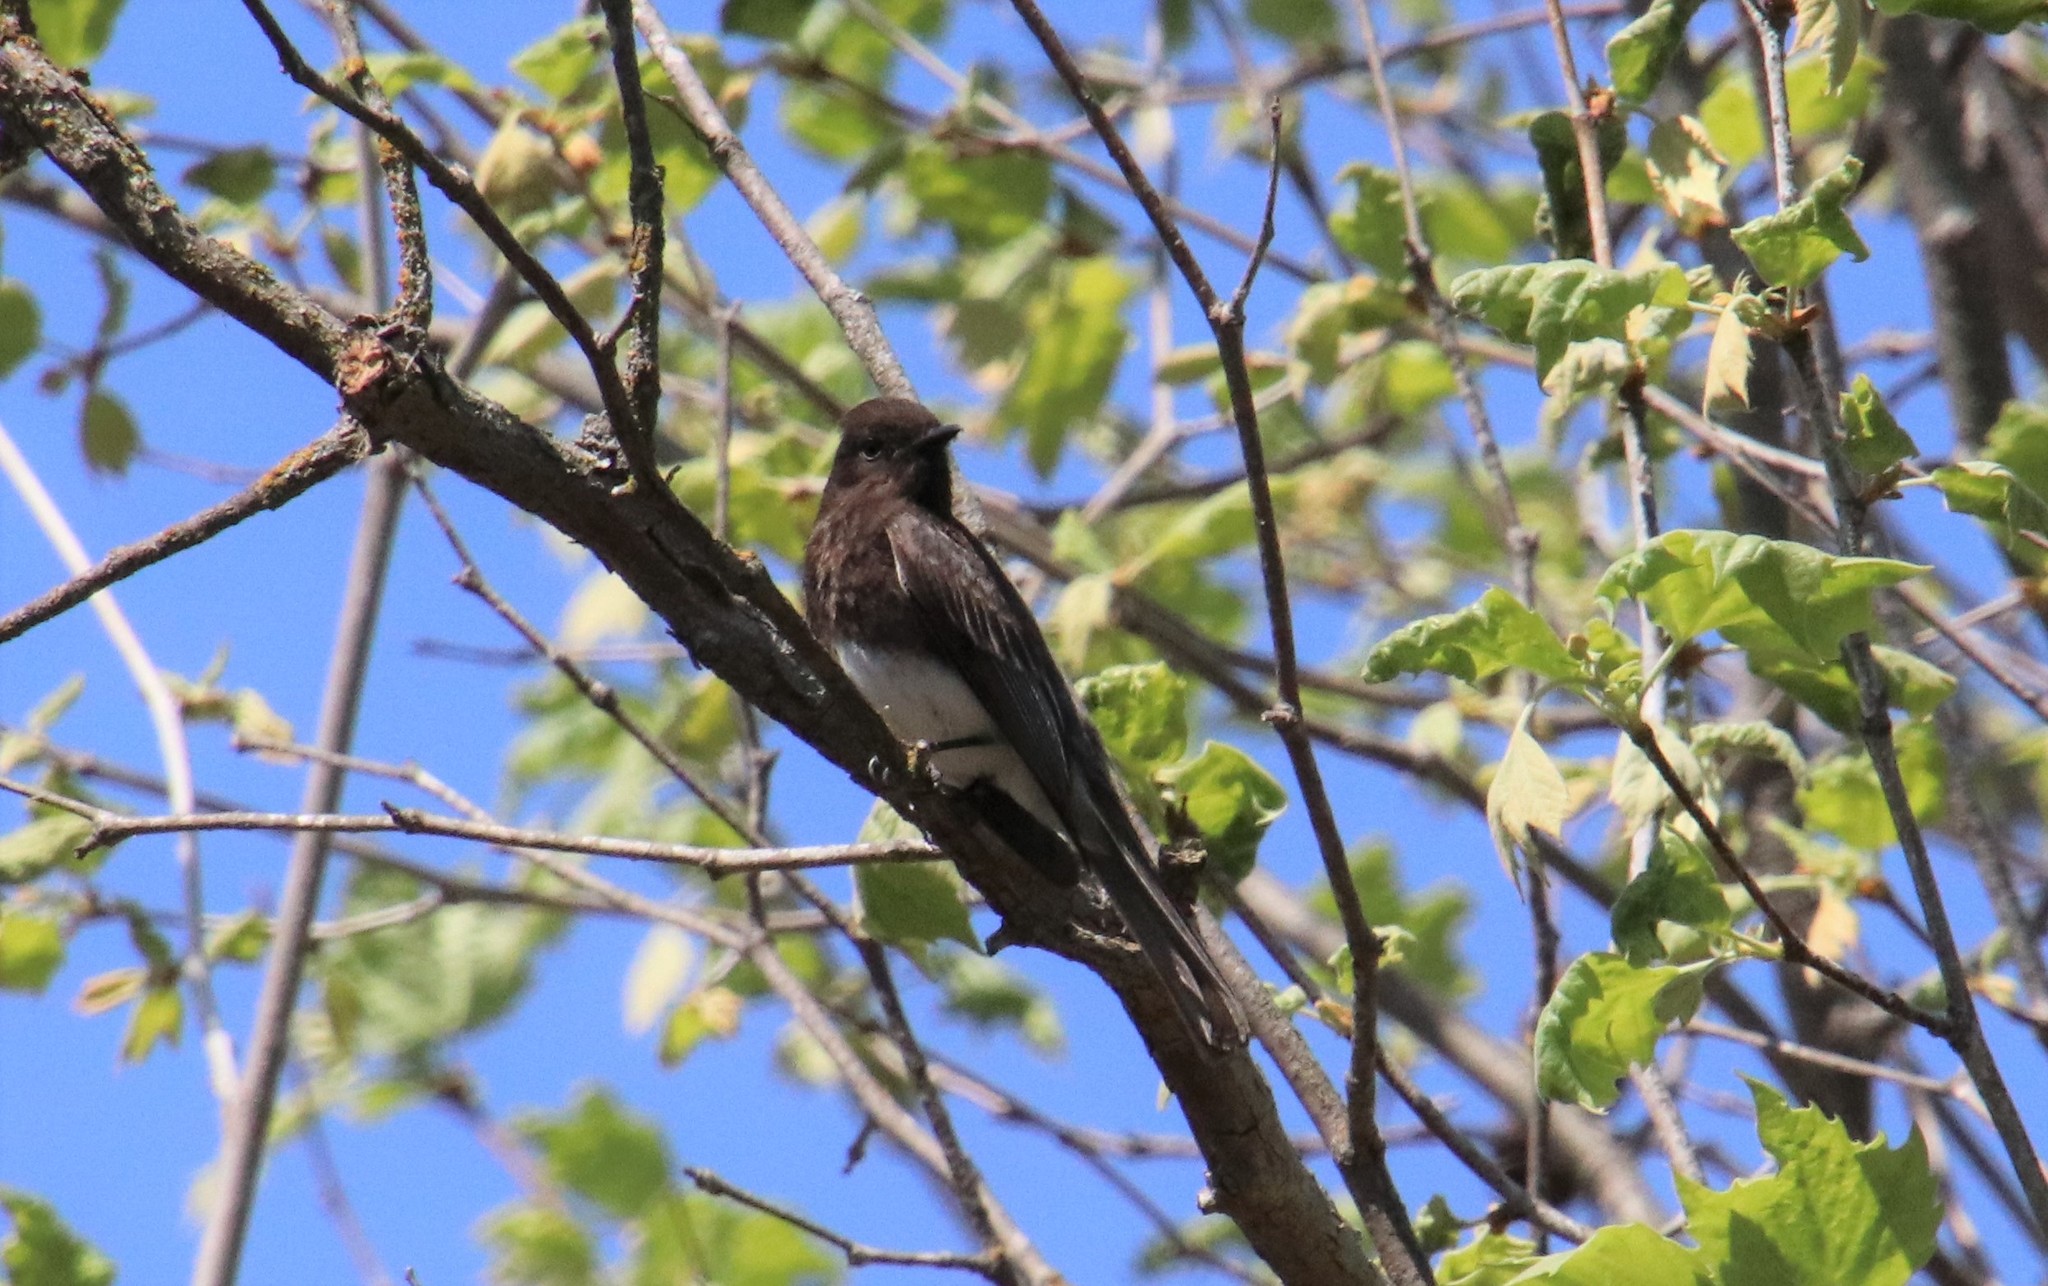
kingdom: Animalia
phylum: Chordata
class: Aves
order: Passeriformes
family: Tyrannidae
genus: Sayornis
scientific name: Sayornis nigricans
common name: Black phoebe
